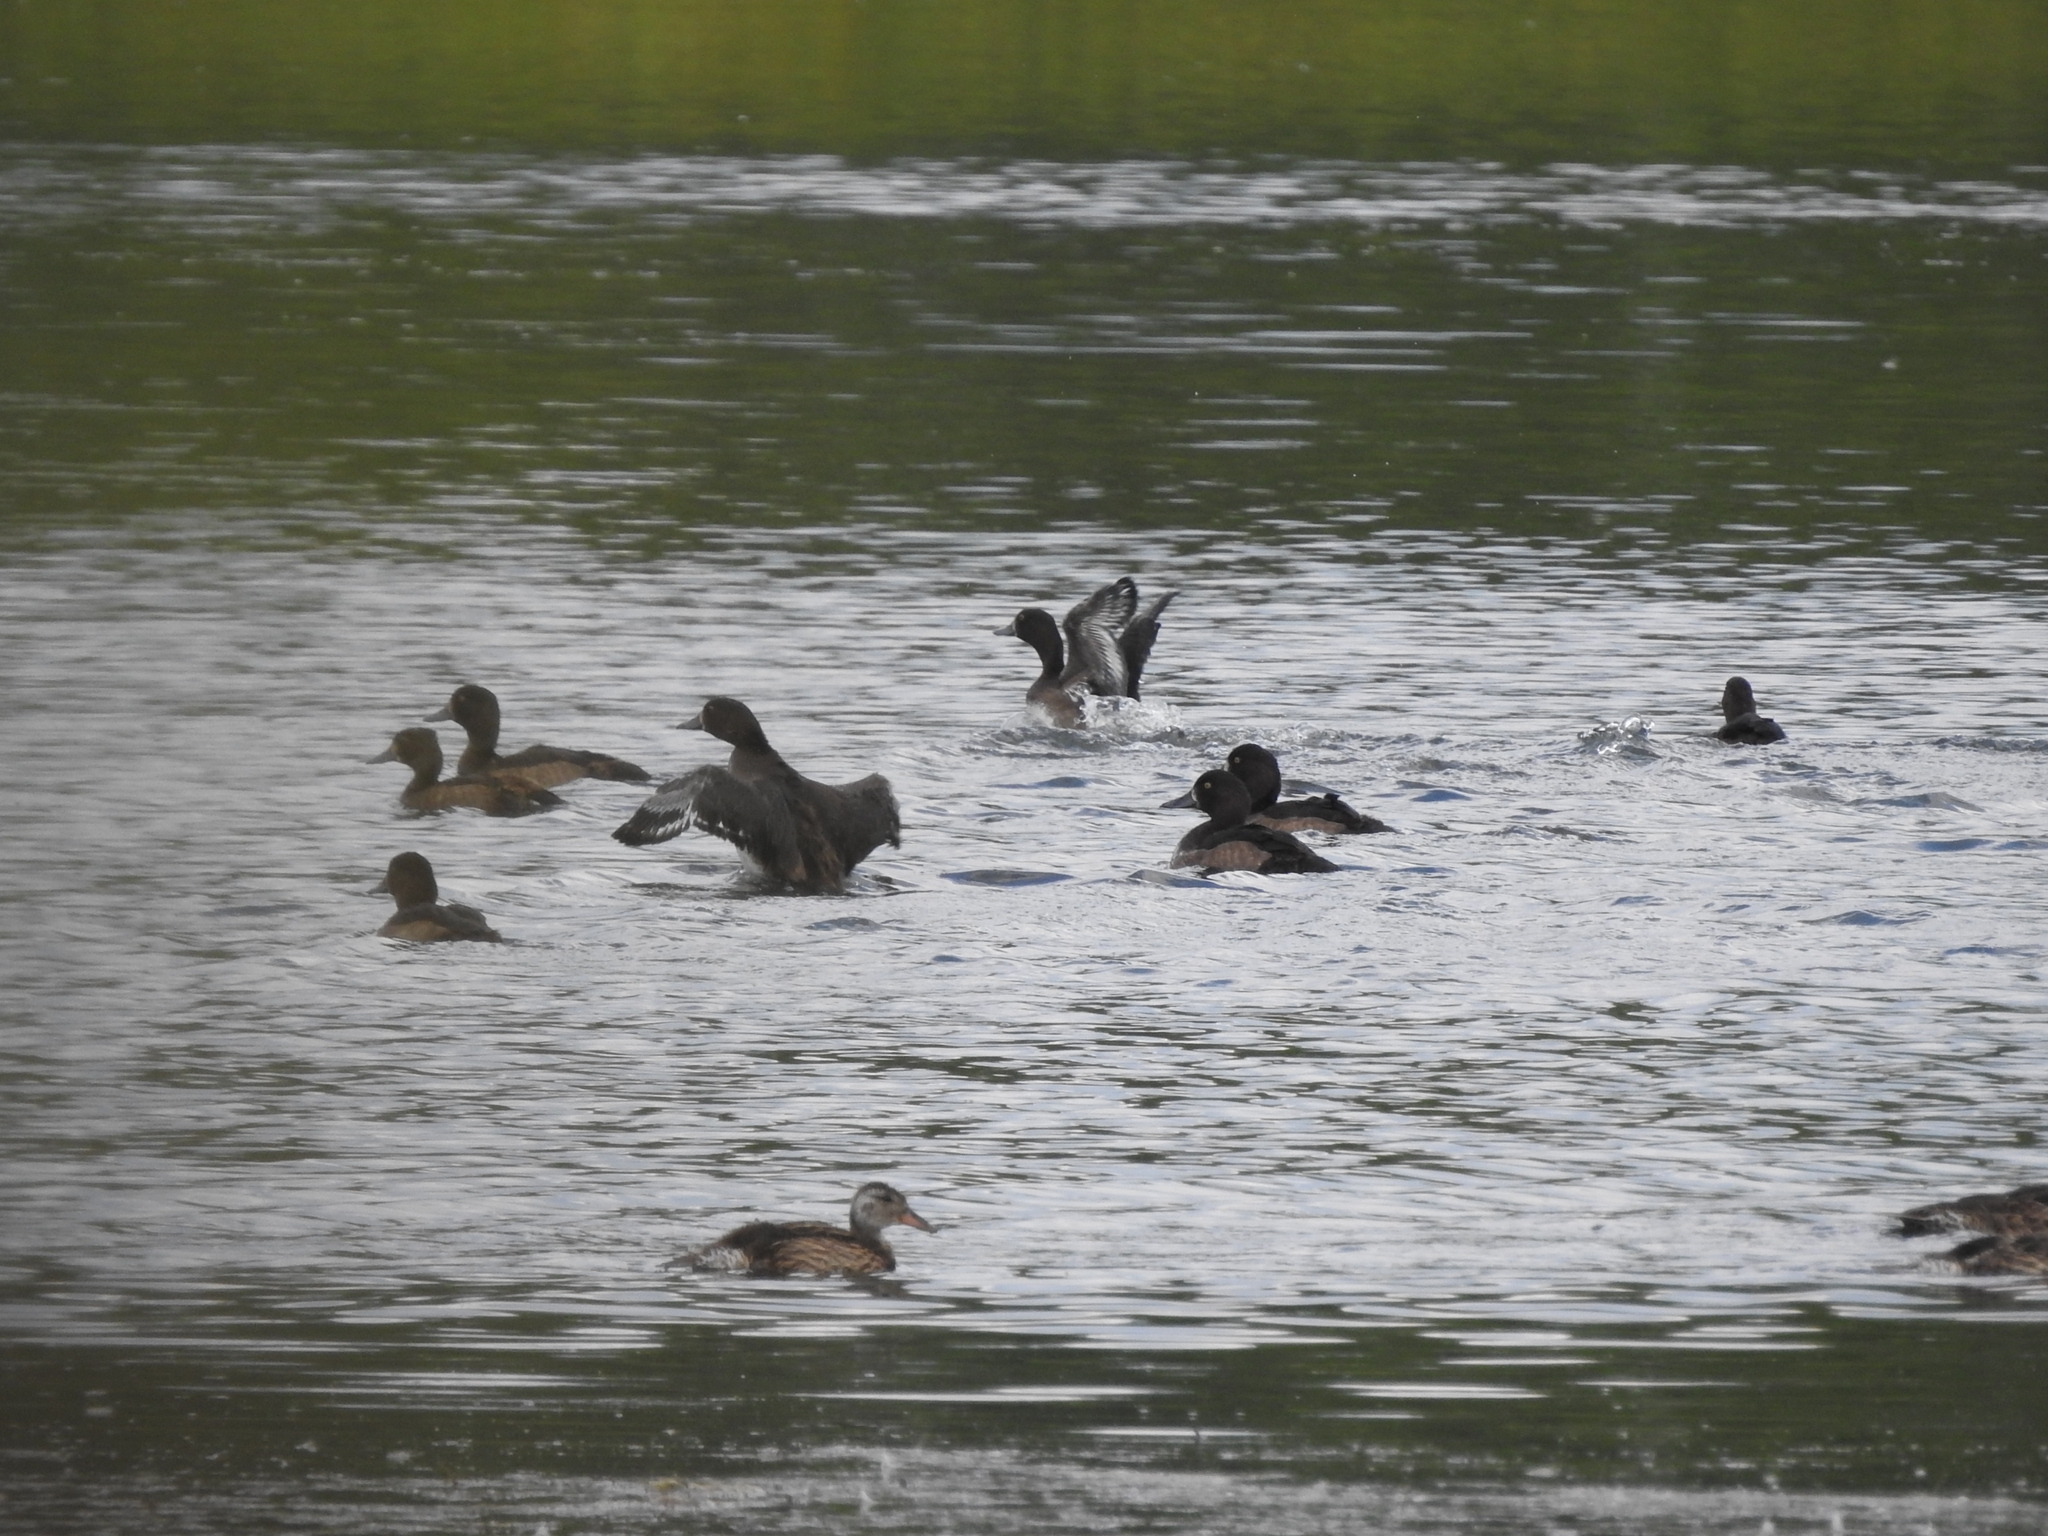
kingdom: Animalia
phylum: Chordata
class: Aves
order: Anseriformes
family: Anatidae
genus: Aythya
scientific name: Aythya fuligula
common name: Tufted duck
